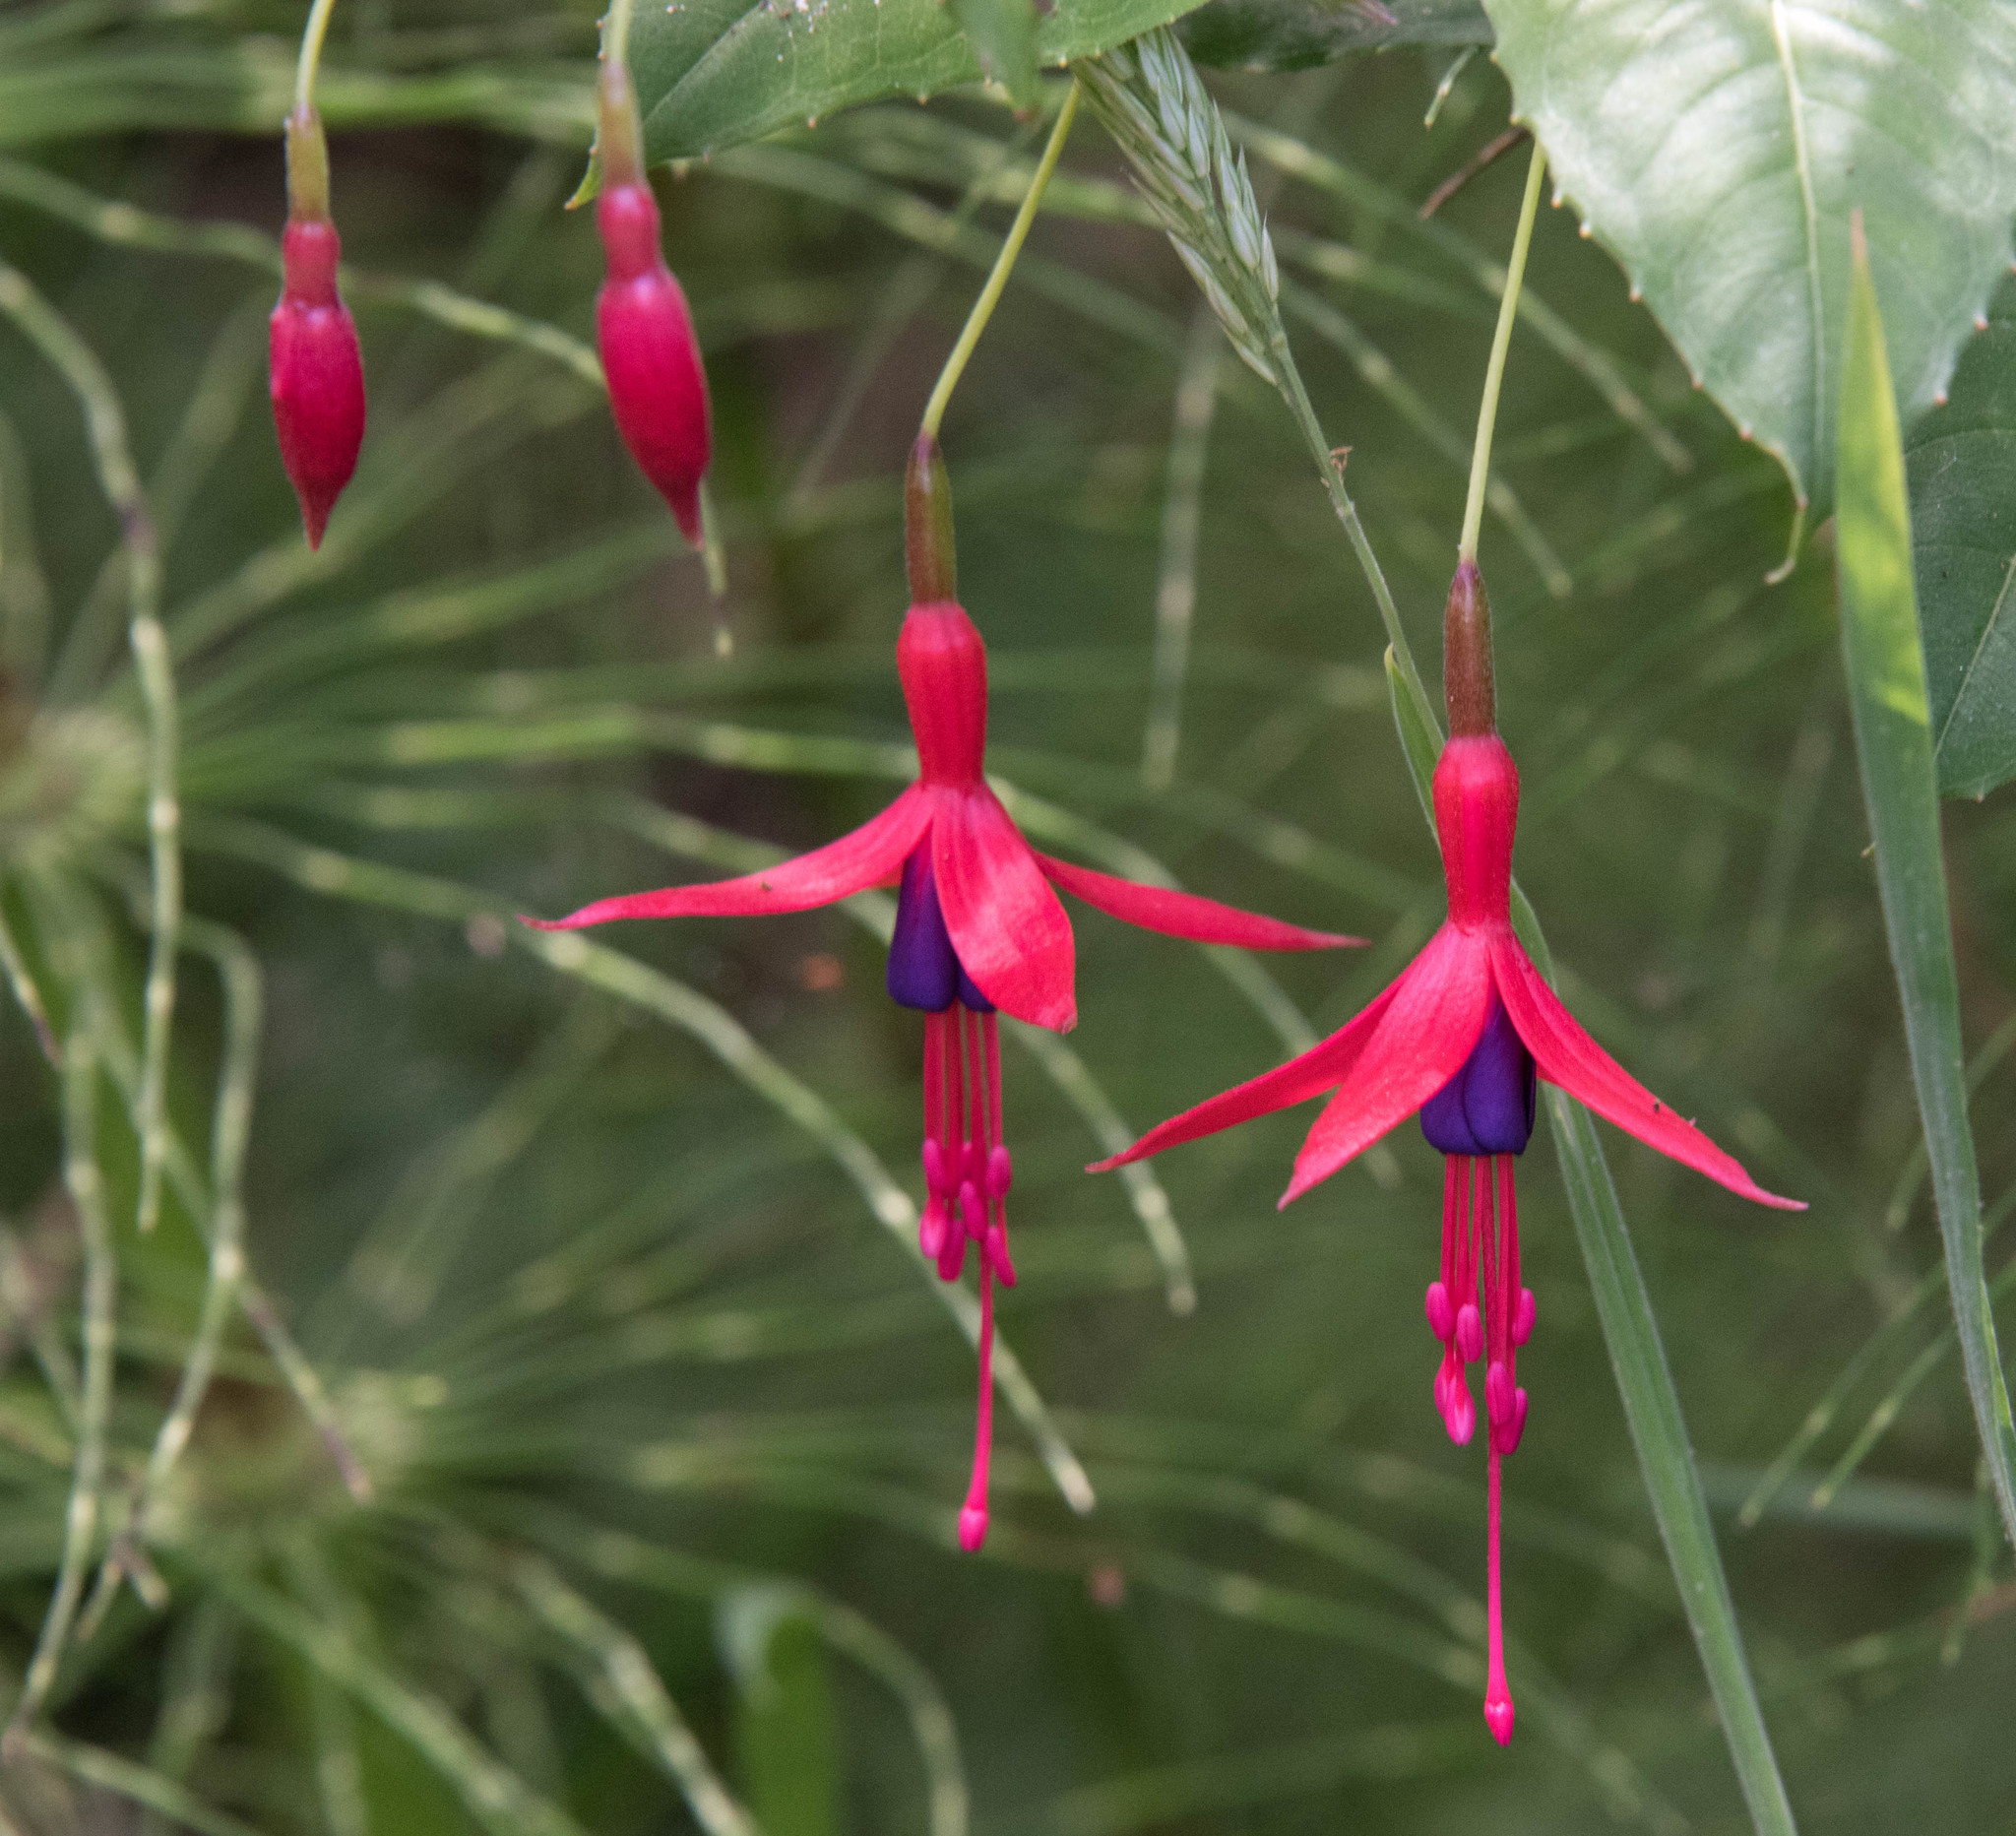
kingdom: Plantae
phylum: Tracheophyta
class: Magnoliopsida
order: Myrtales
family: Onagraceae
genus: Fuchsia
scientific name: Fuchsia magellanica
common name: Hardy fuchsia
